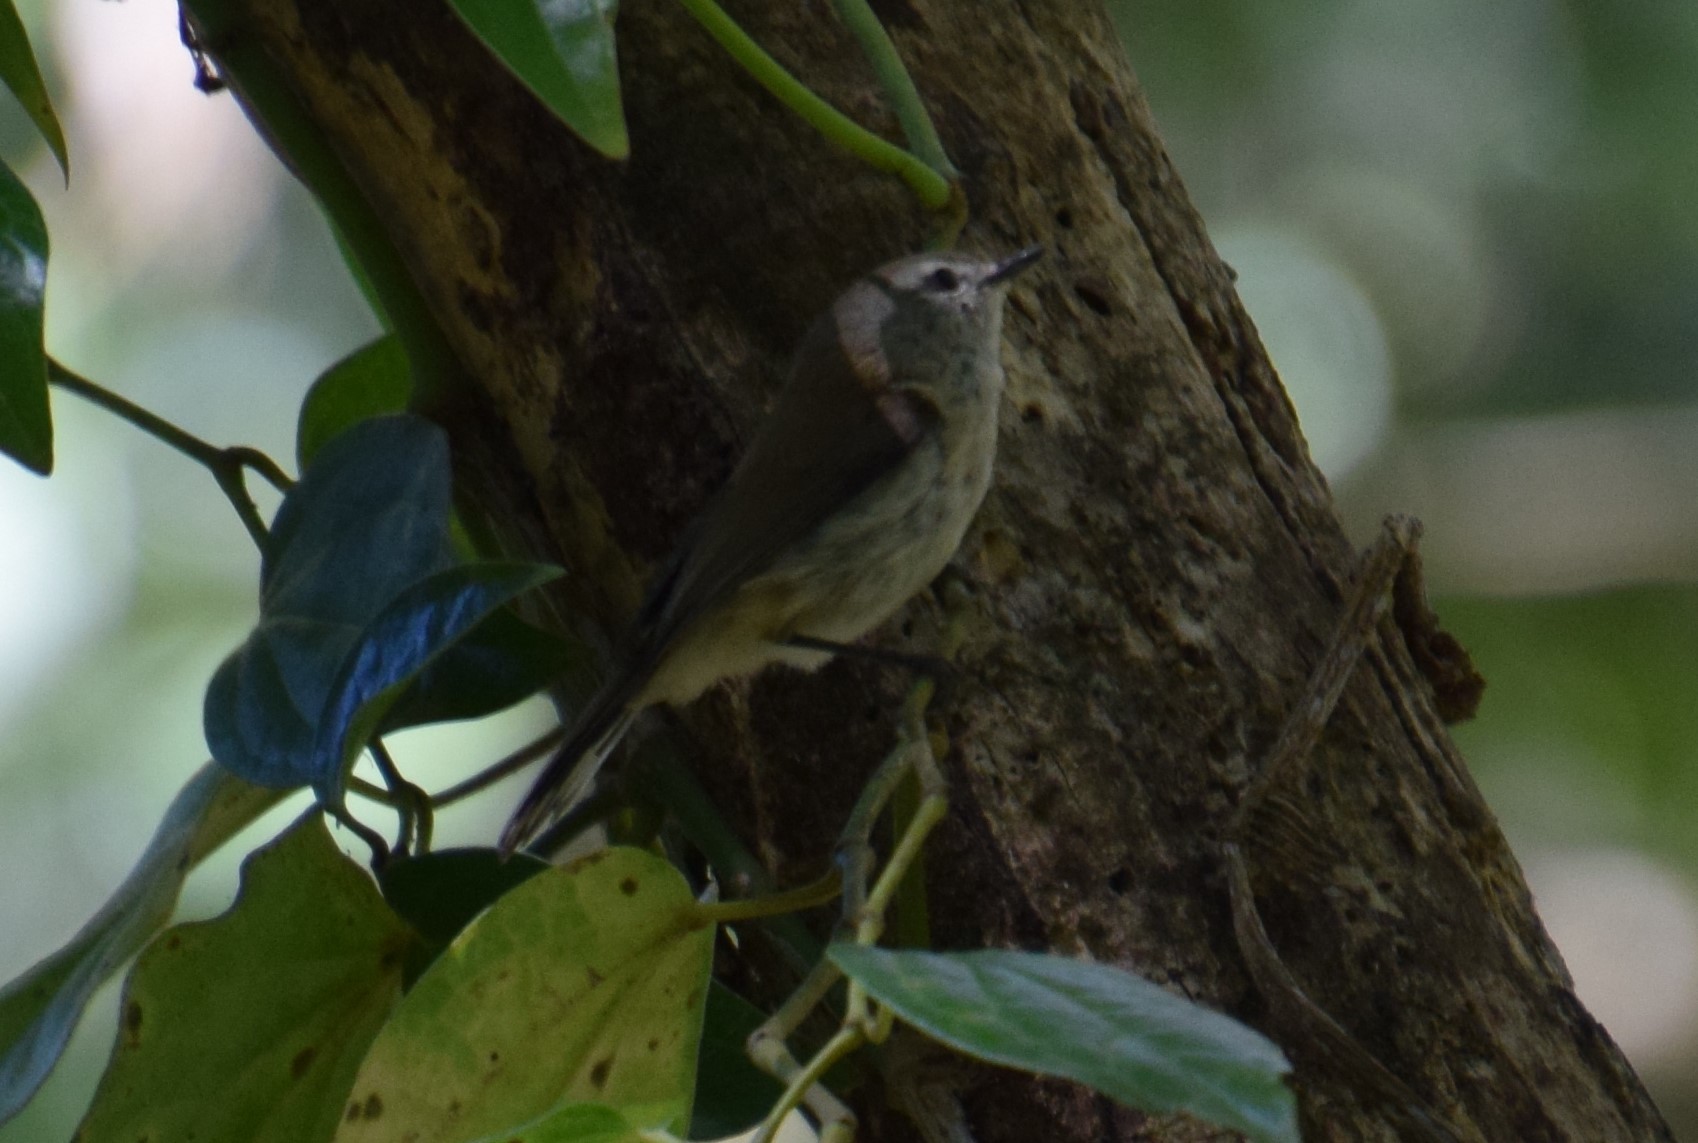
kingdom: Animalia
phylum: Chordata
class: Aves
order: Passeriformes
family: Acanthizidae
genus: Gerygone
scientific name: Gerygone mouki
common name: Brown gerygone
